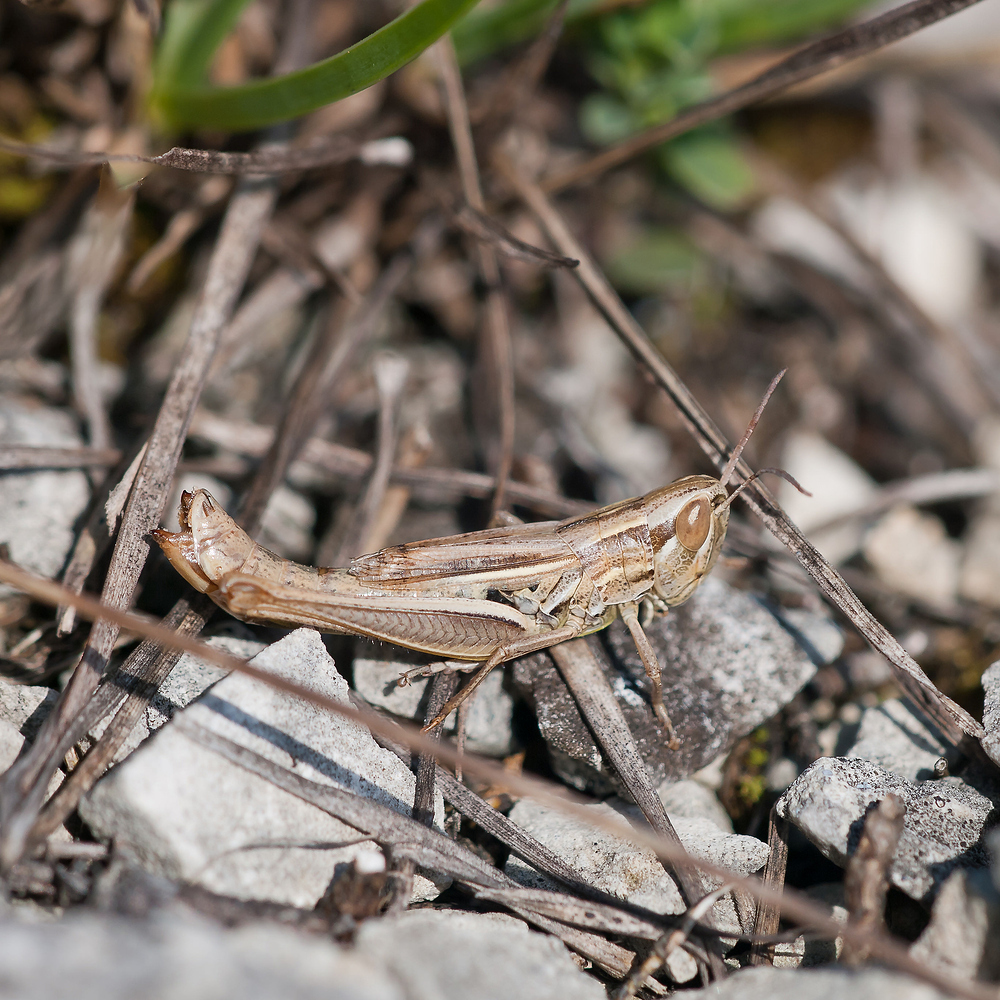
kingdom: Animalia
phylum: Arthropoda
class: Insecta
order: Orthoptera
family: Acrididae
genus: Euchorthippus
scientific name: Euchorthippus declivus
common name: Common straw grasshopper
